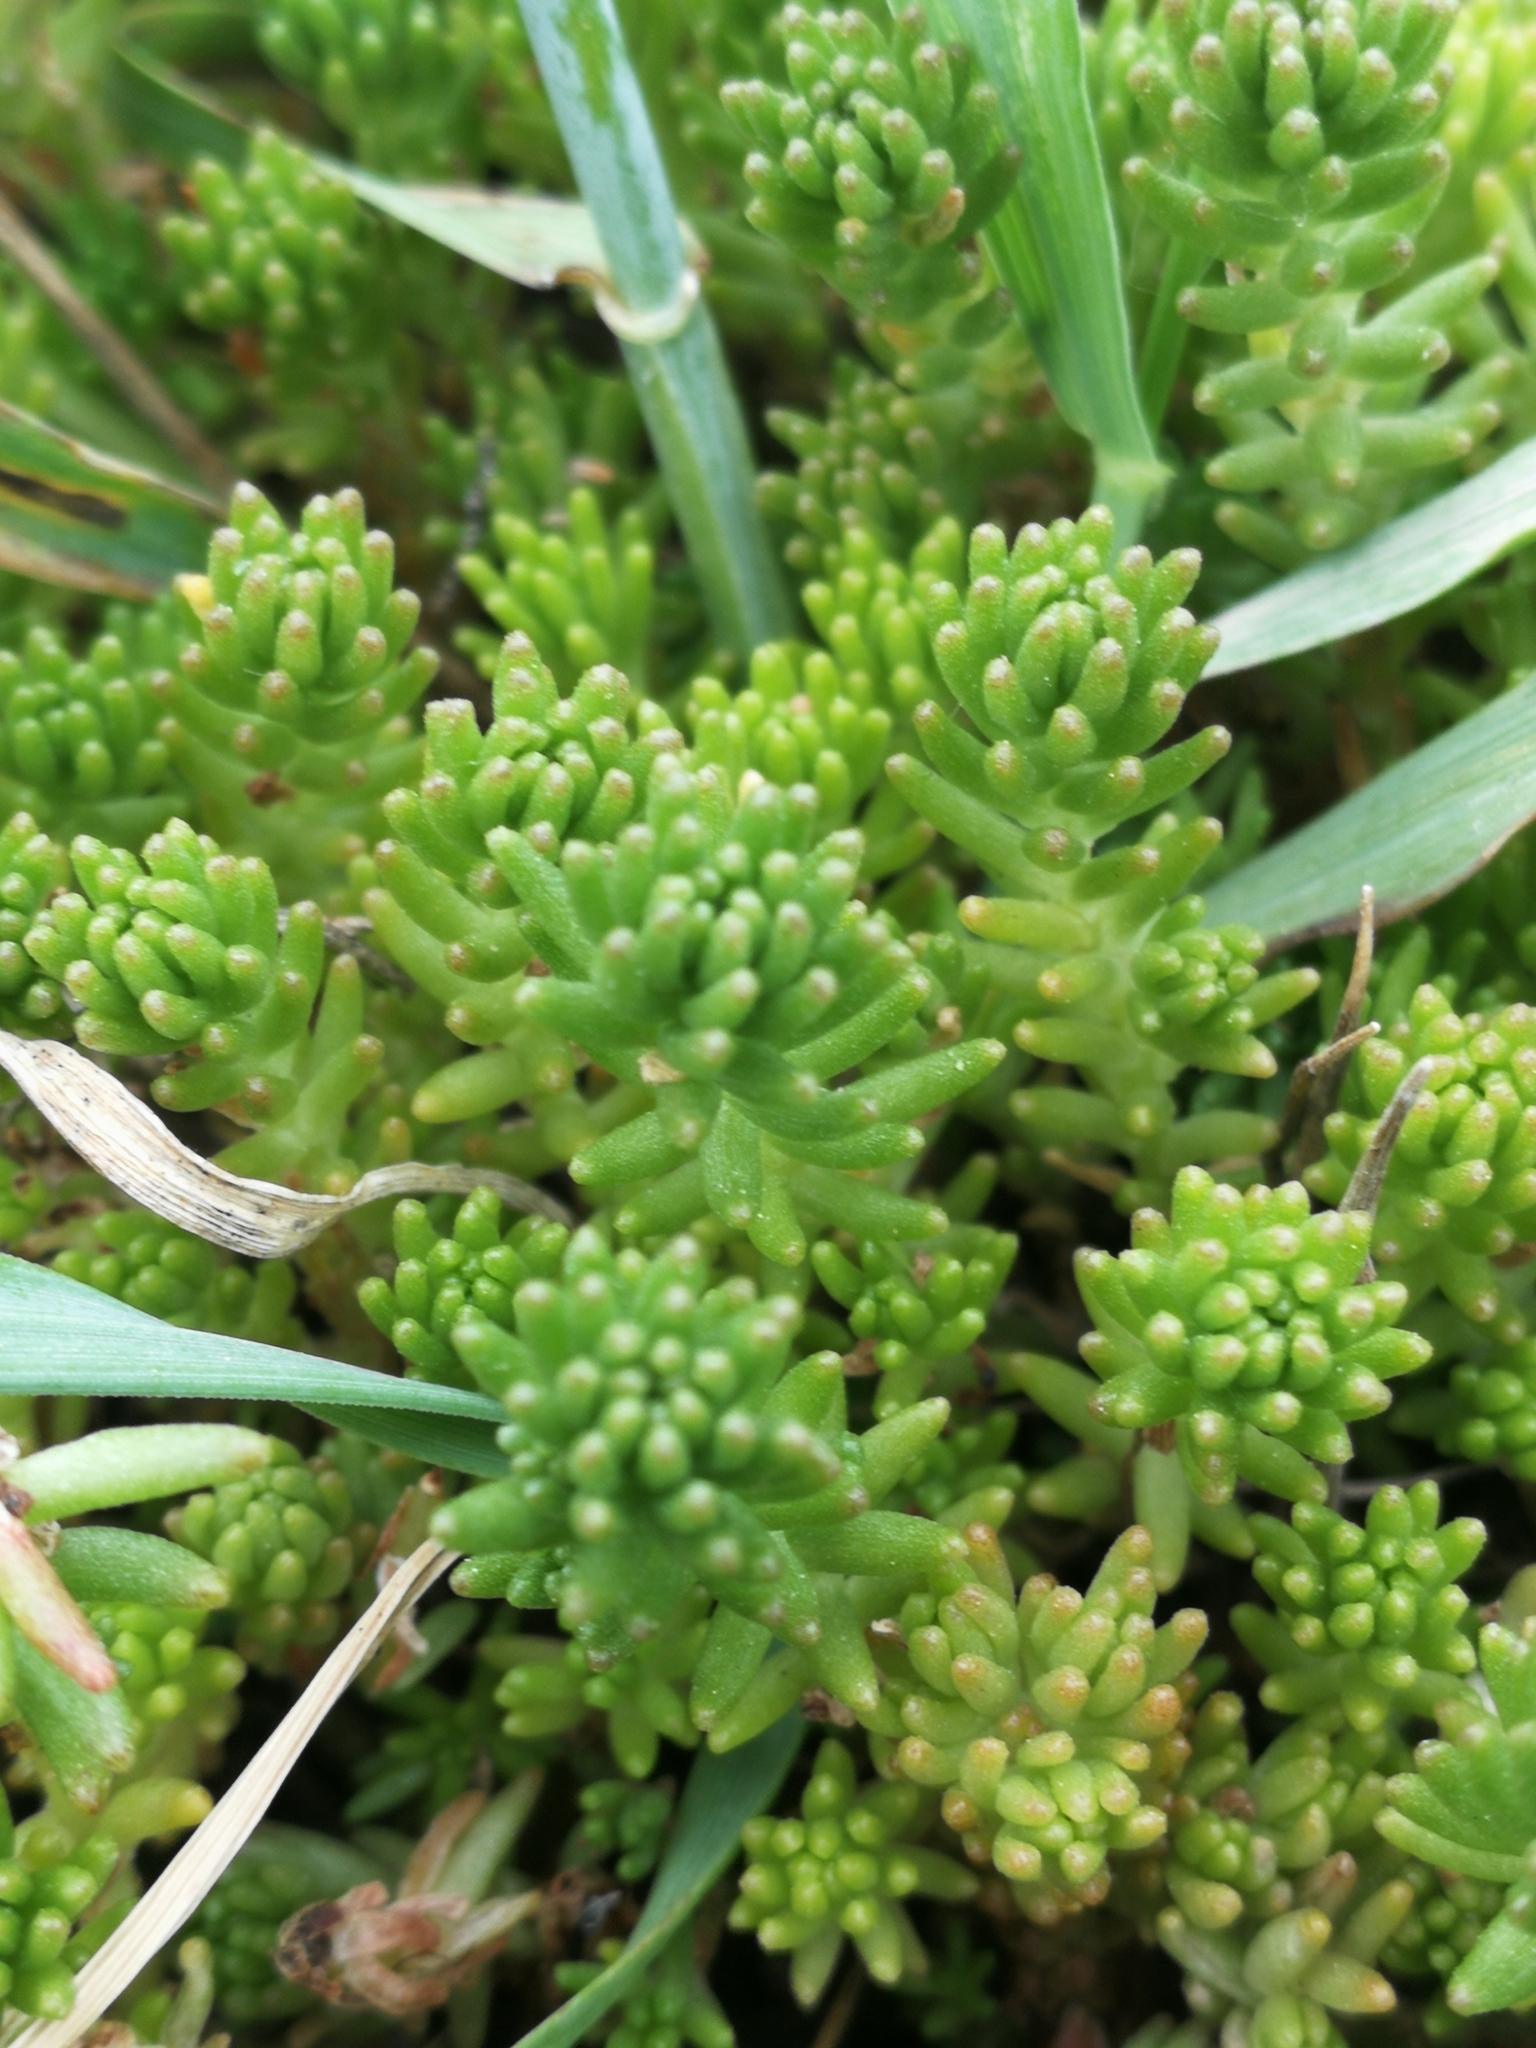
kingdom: Plantae
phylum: Tracheophyta
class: Magnoliopsida
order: Saxifragales
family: Crassulaceae
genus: Sedum
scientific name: Sedum sexangulare
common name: Tasteless stonecrop
